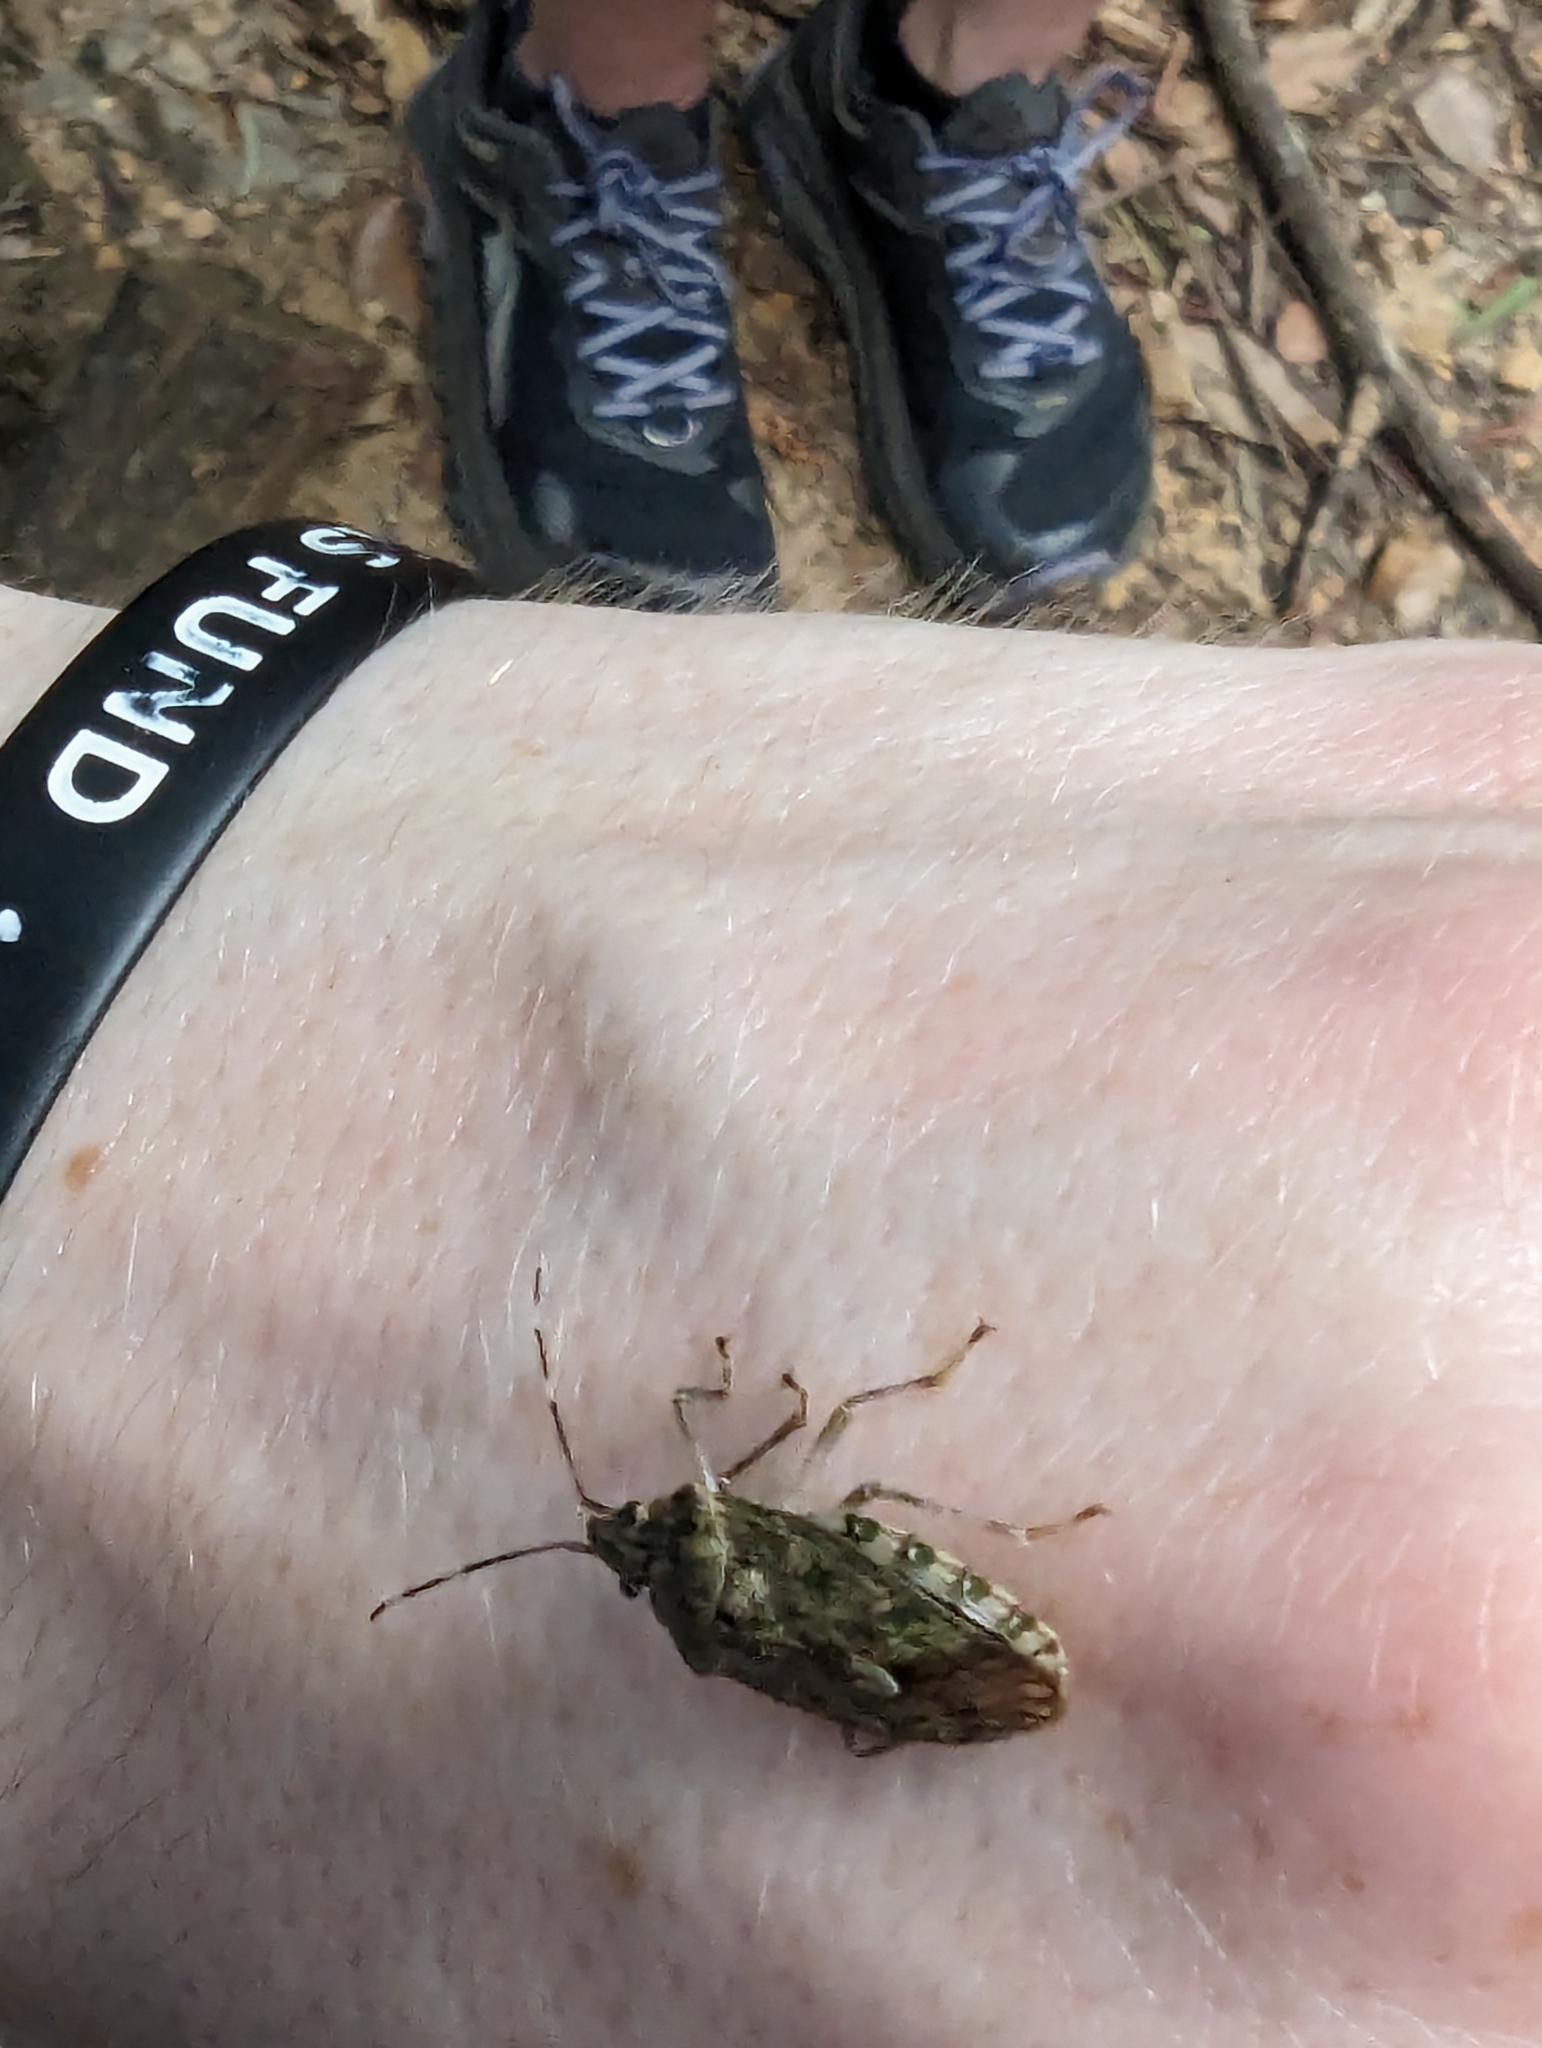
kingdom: Animalia
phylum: Arthropoda
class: Insecta
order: Hemiptera
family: Pentatomidae
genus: Bathrus
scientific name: Bathrus
